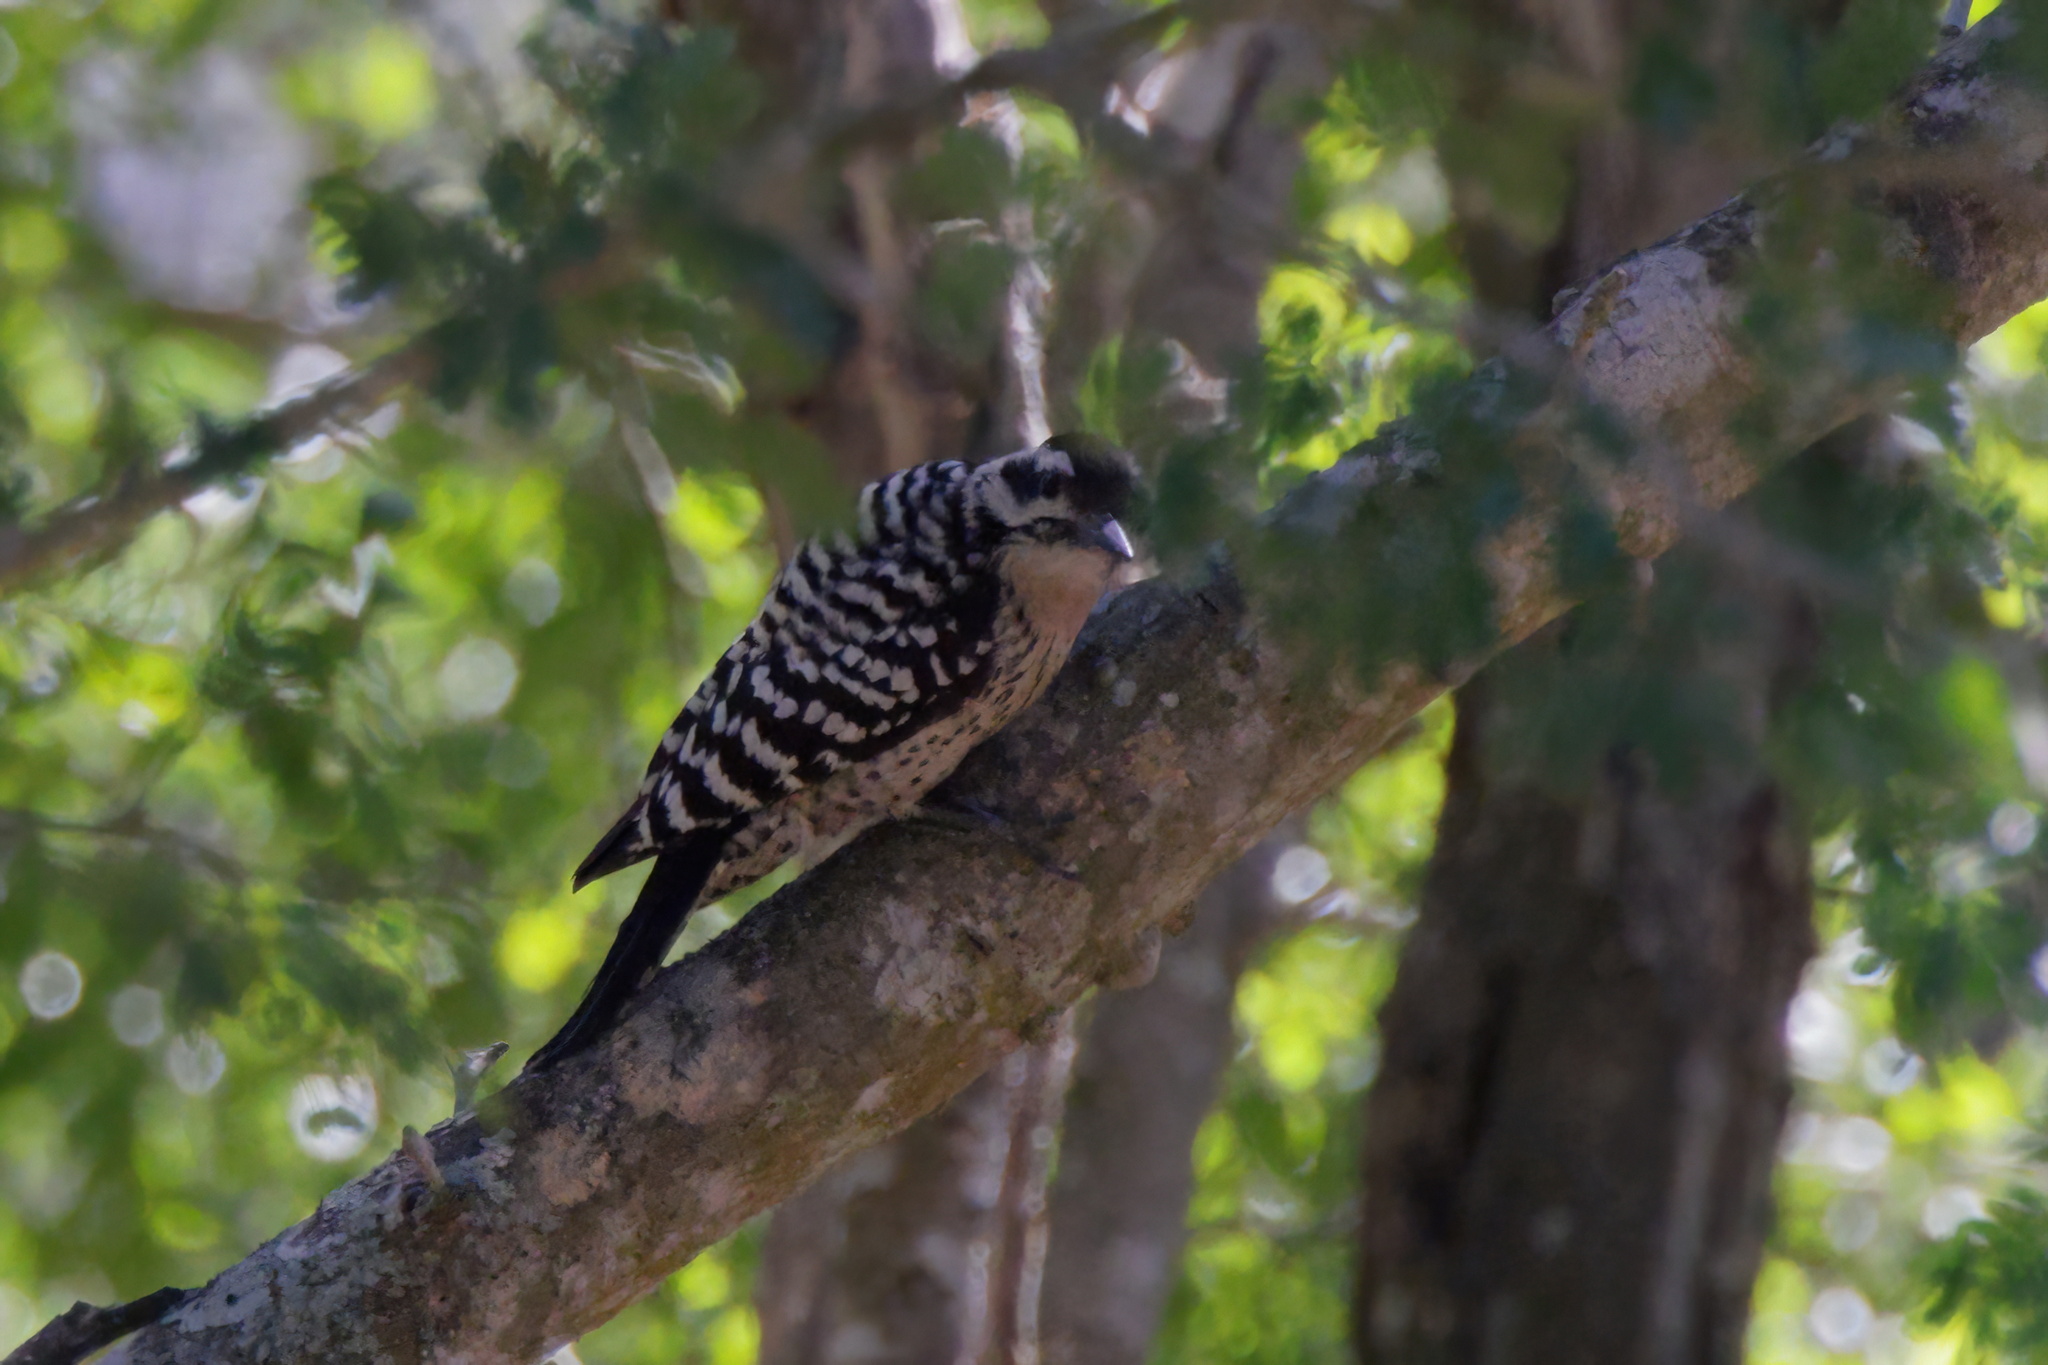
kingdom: Animalia
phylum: Chordata
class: Aves
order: Piciformes
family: Picidae
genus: Dryobates
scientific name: Dryobates scalaris
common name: Ladder-backed woodpecker
